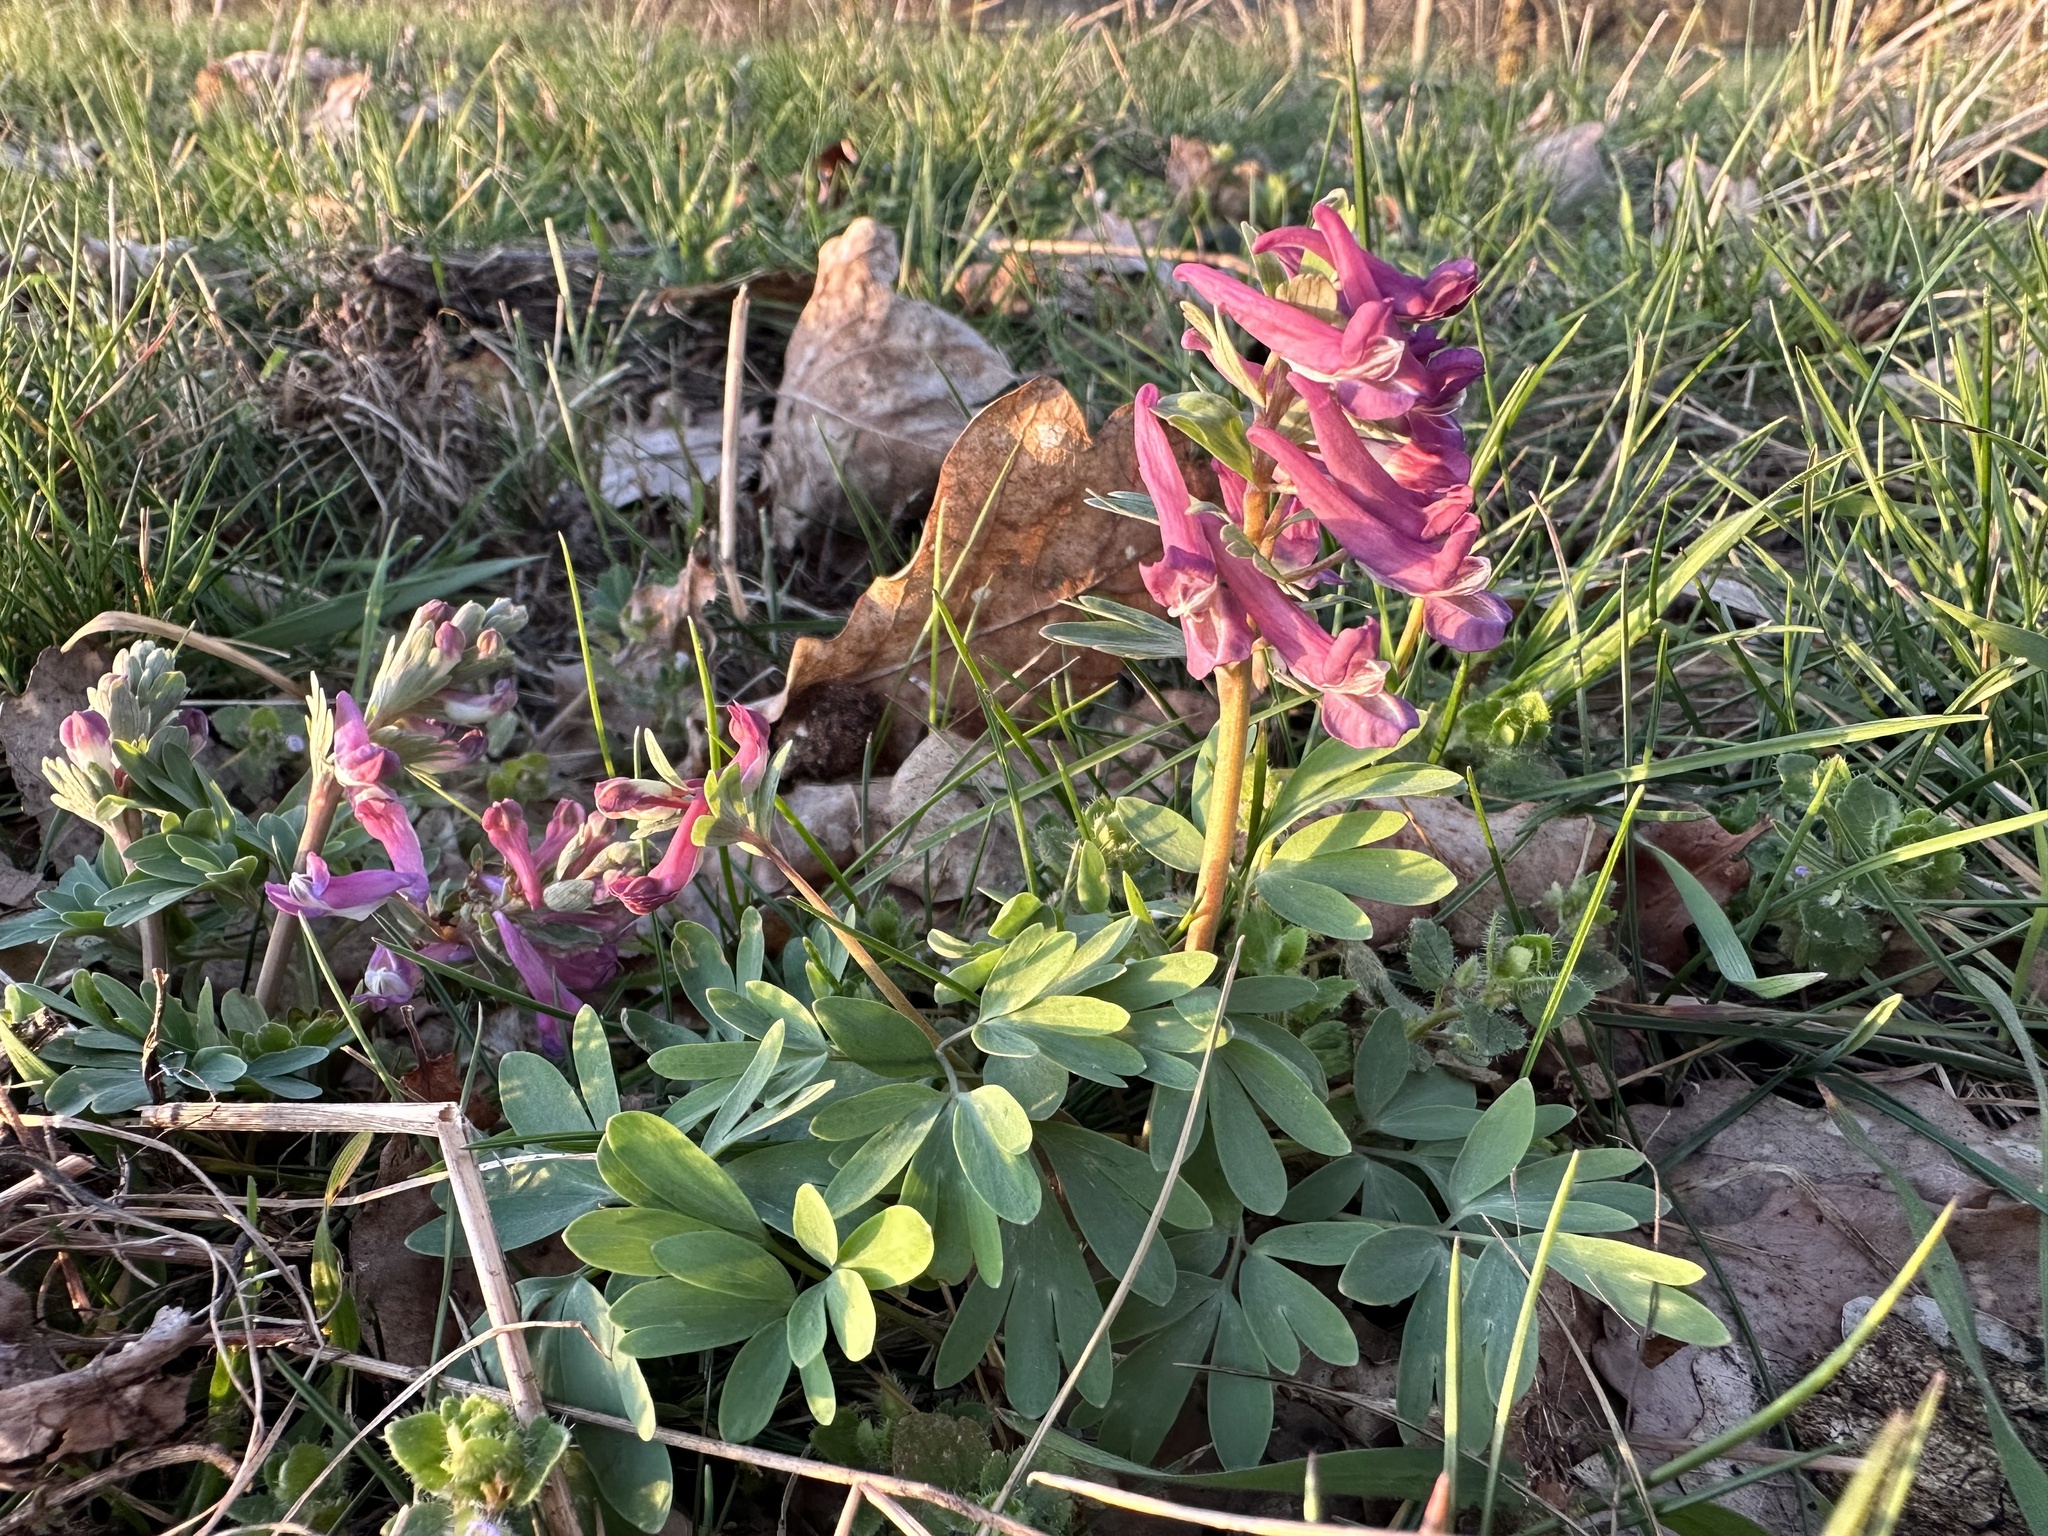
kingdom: Plantae
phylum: Tracheophyta
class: Magnoliopsida
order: Ranunculales
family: Papaveraceae
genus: Corydalis
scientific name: Corydalis solida
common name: Bird-in-a-bush
